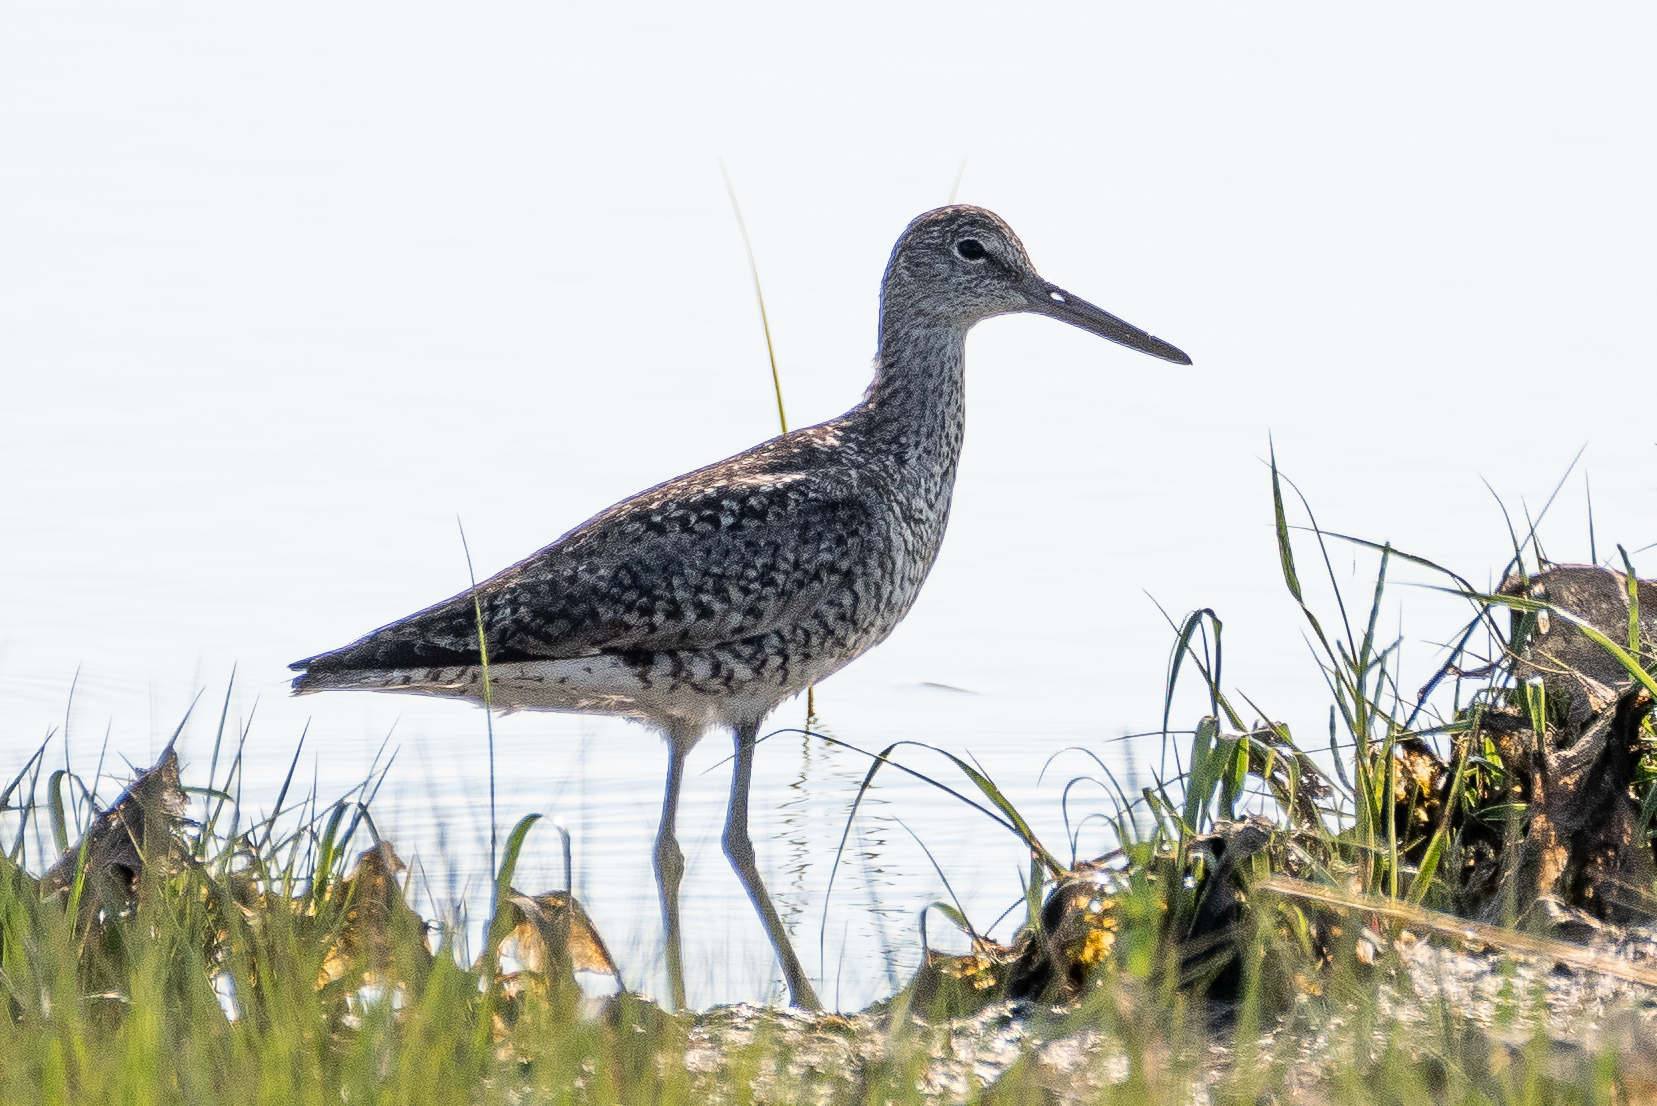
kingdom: Animalia
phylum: Chordata
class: Aves
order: Charadriiformes
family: Scolopacidae
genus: Tringa
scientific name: Tringa semipalmata
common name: Willet
